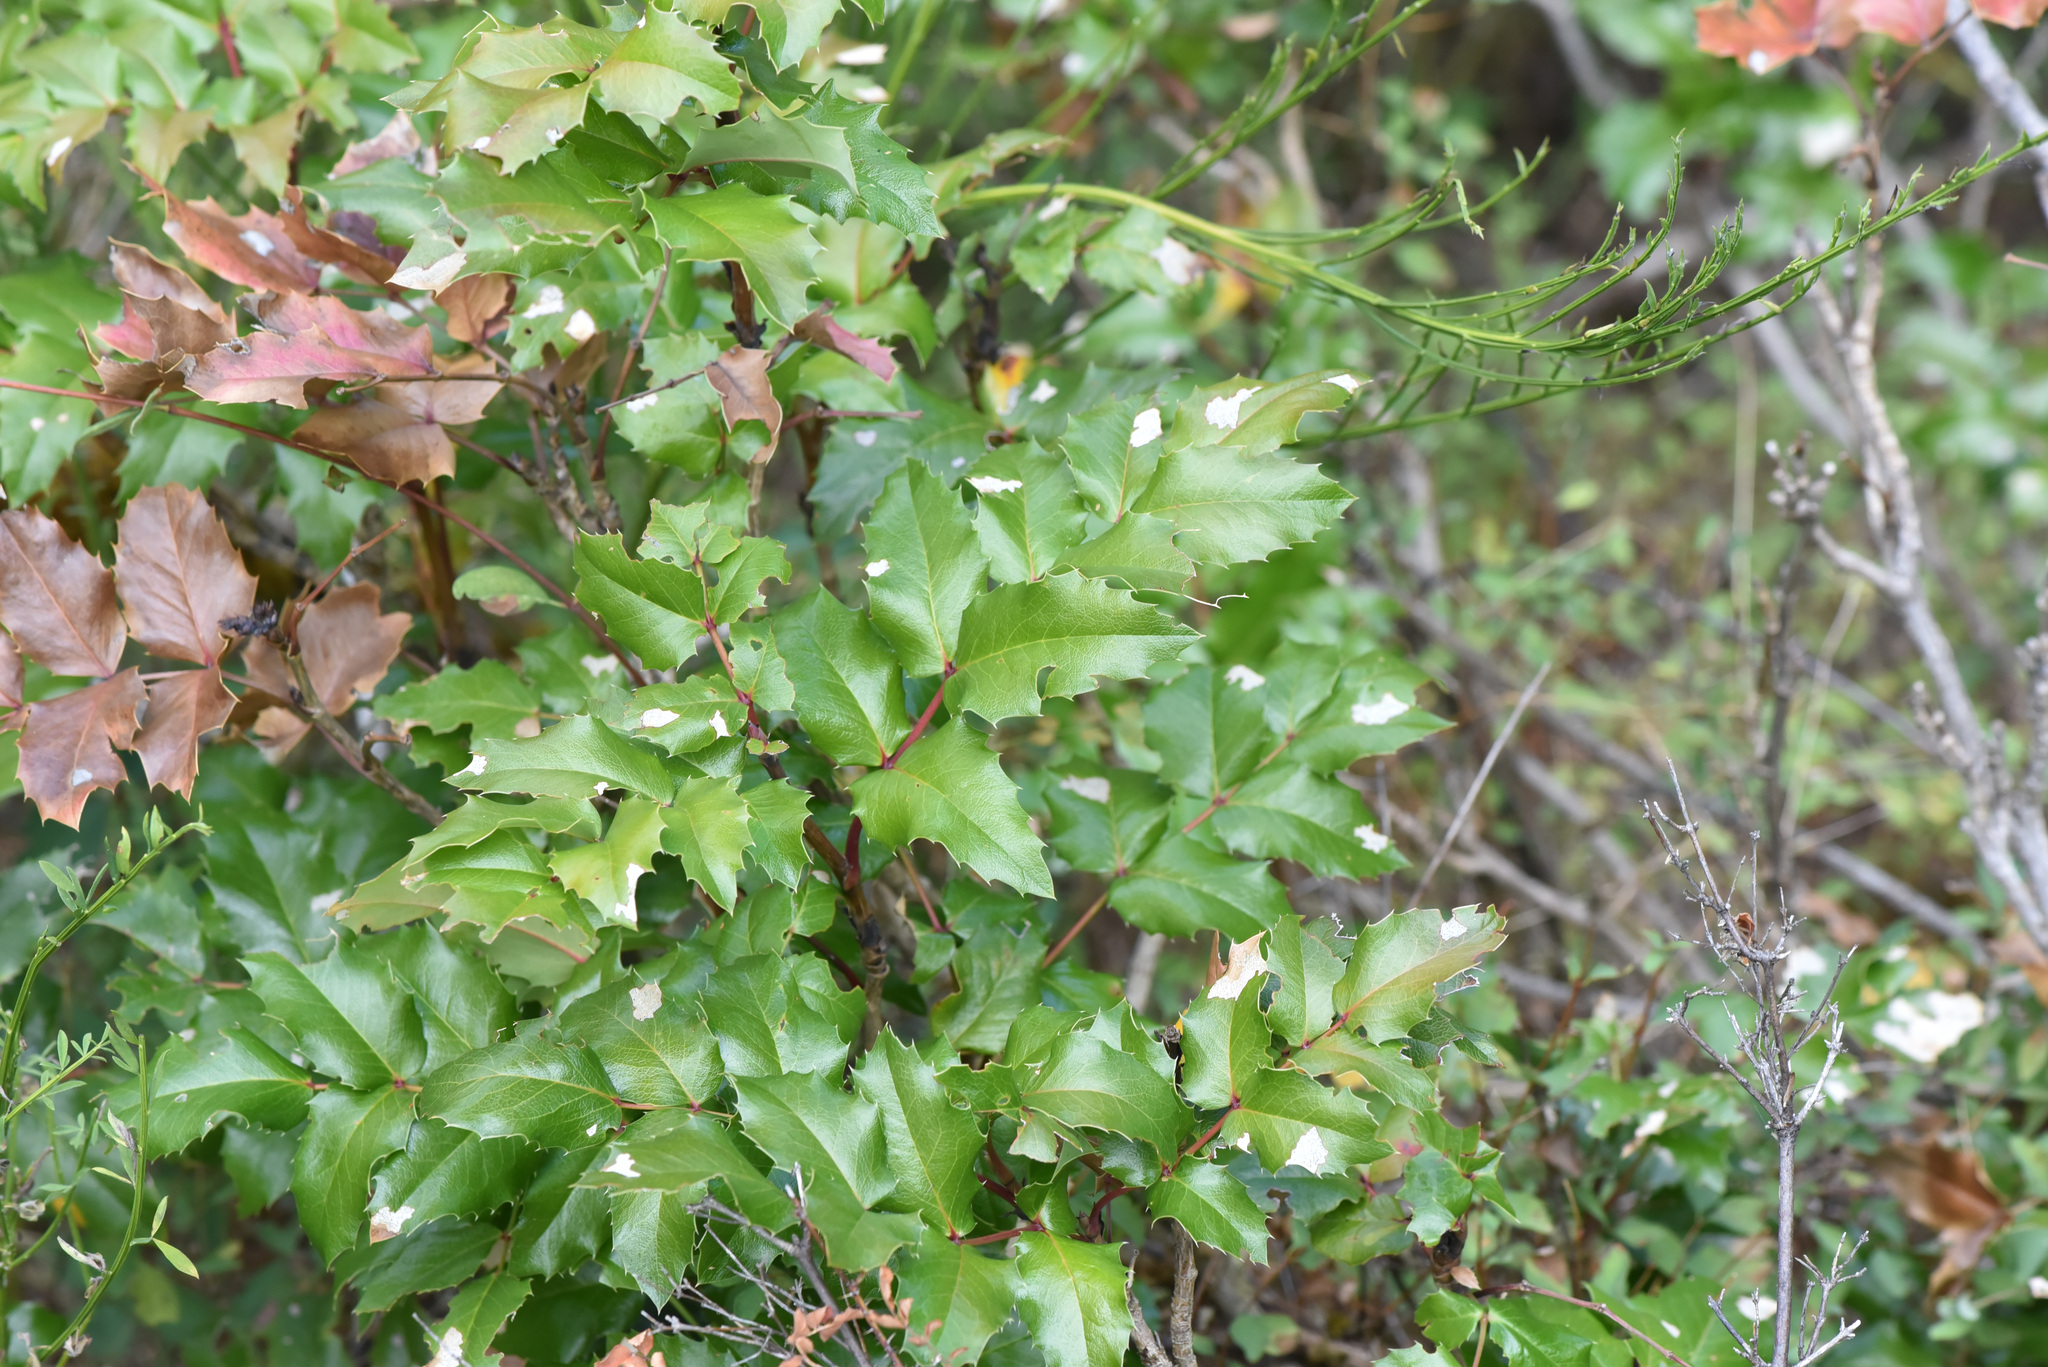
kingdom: Plantae
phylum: Tracheophyta
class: Magnoliopsida
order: Ranunculales
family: Berberidaceae
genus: Mahonia
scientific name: Mahonia aquifolium
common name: Oregon-grape
